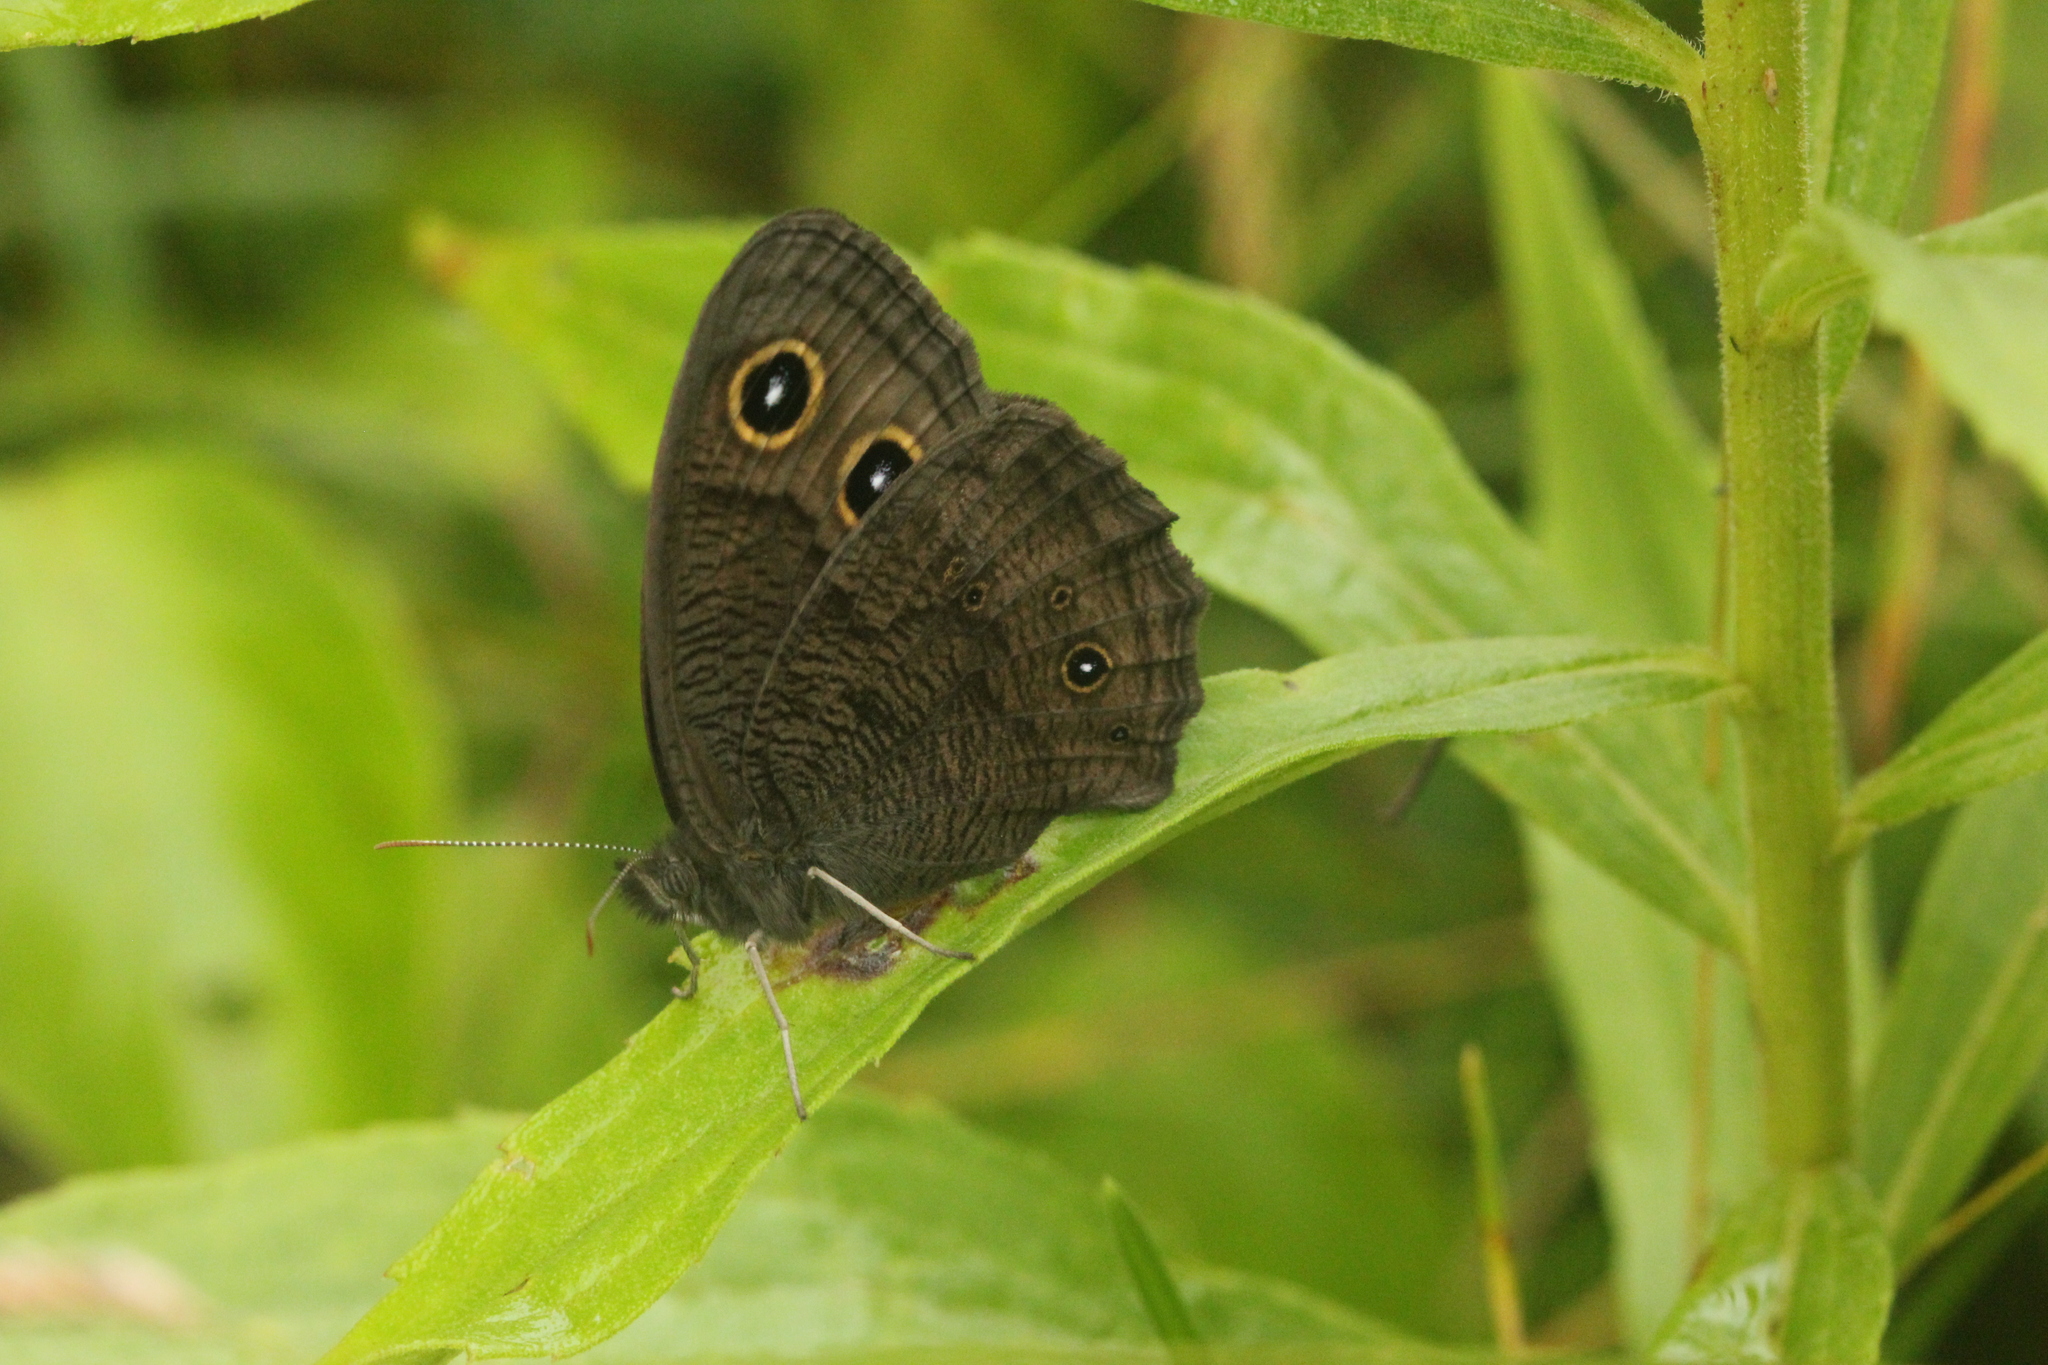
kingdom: Animalia
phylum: Arthropoda
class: Insecta
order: Lepidoptera
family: Nymphalidae
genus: Cercyonis
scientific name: Cercyonis pegala
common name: Common wood-nymph
